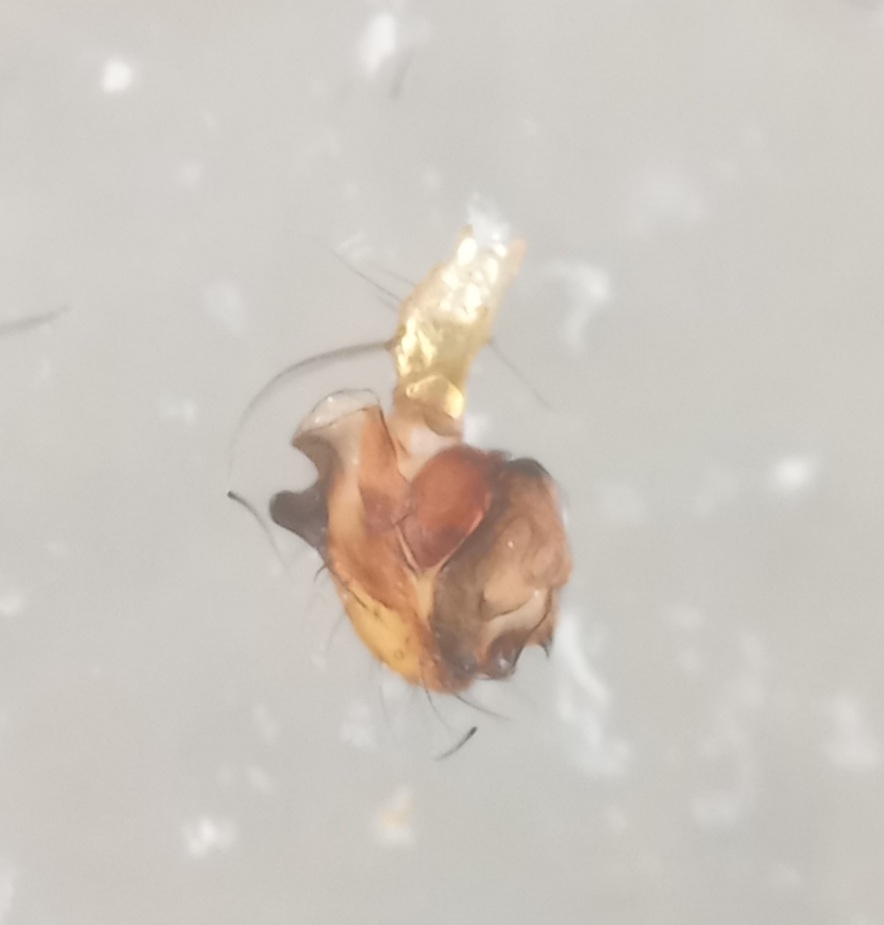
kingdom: Animalia
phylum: Arthropoda
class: Arachnida
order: Araneae
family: Mimetidae
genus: Ero
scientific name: Ero cambridgei
